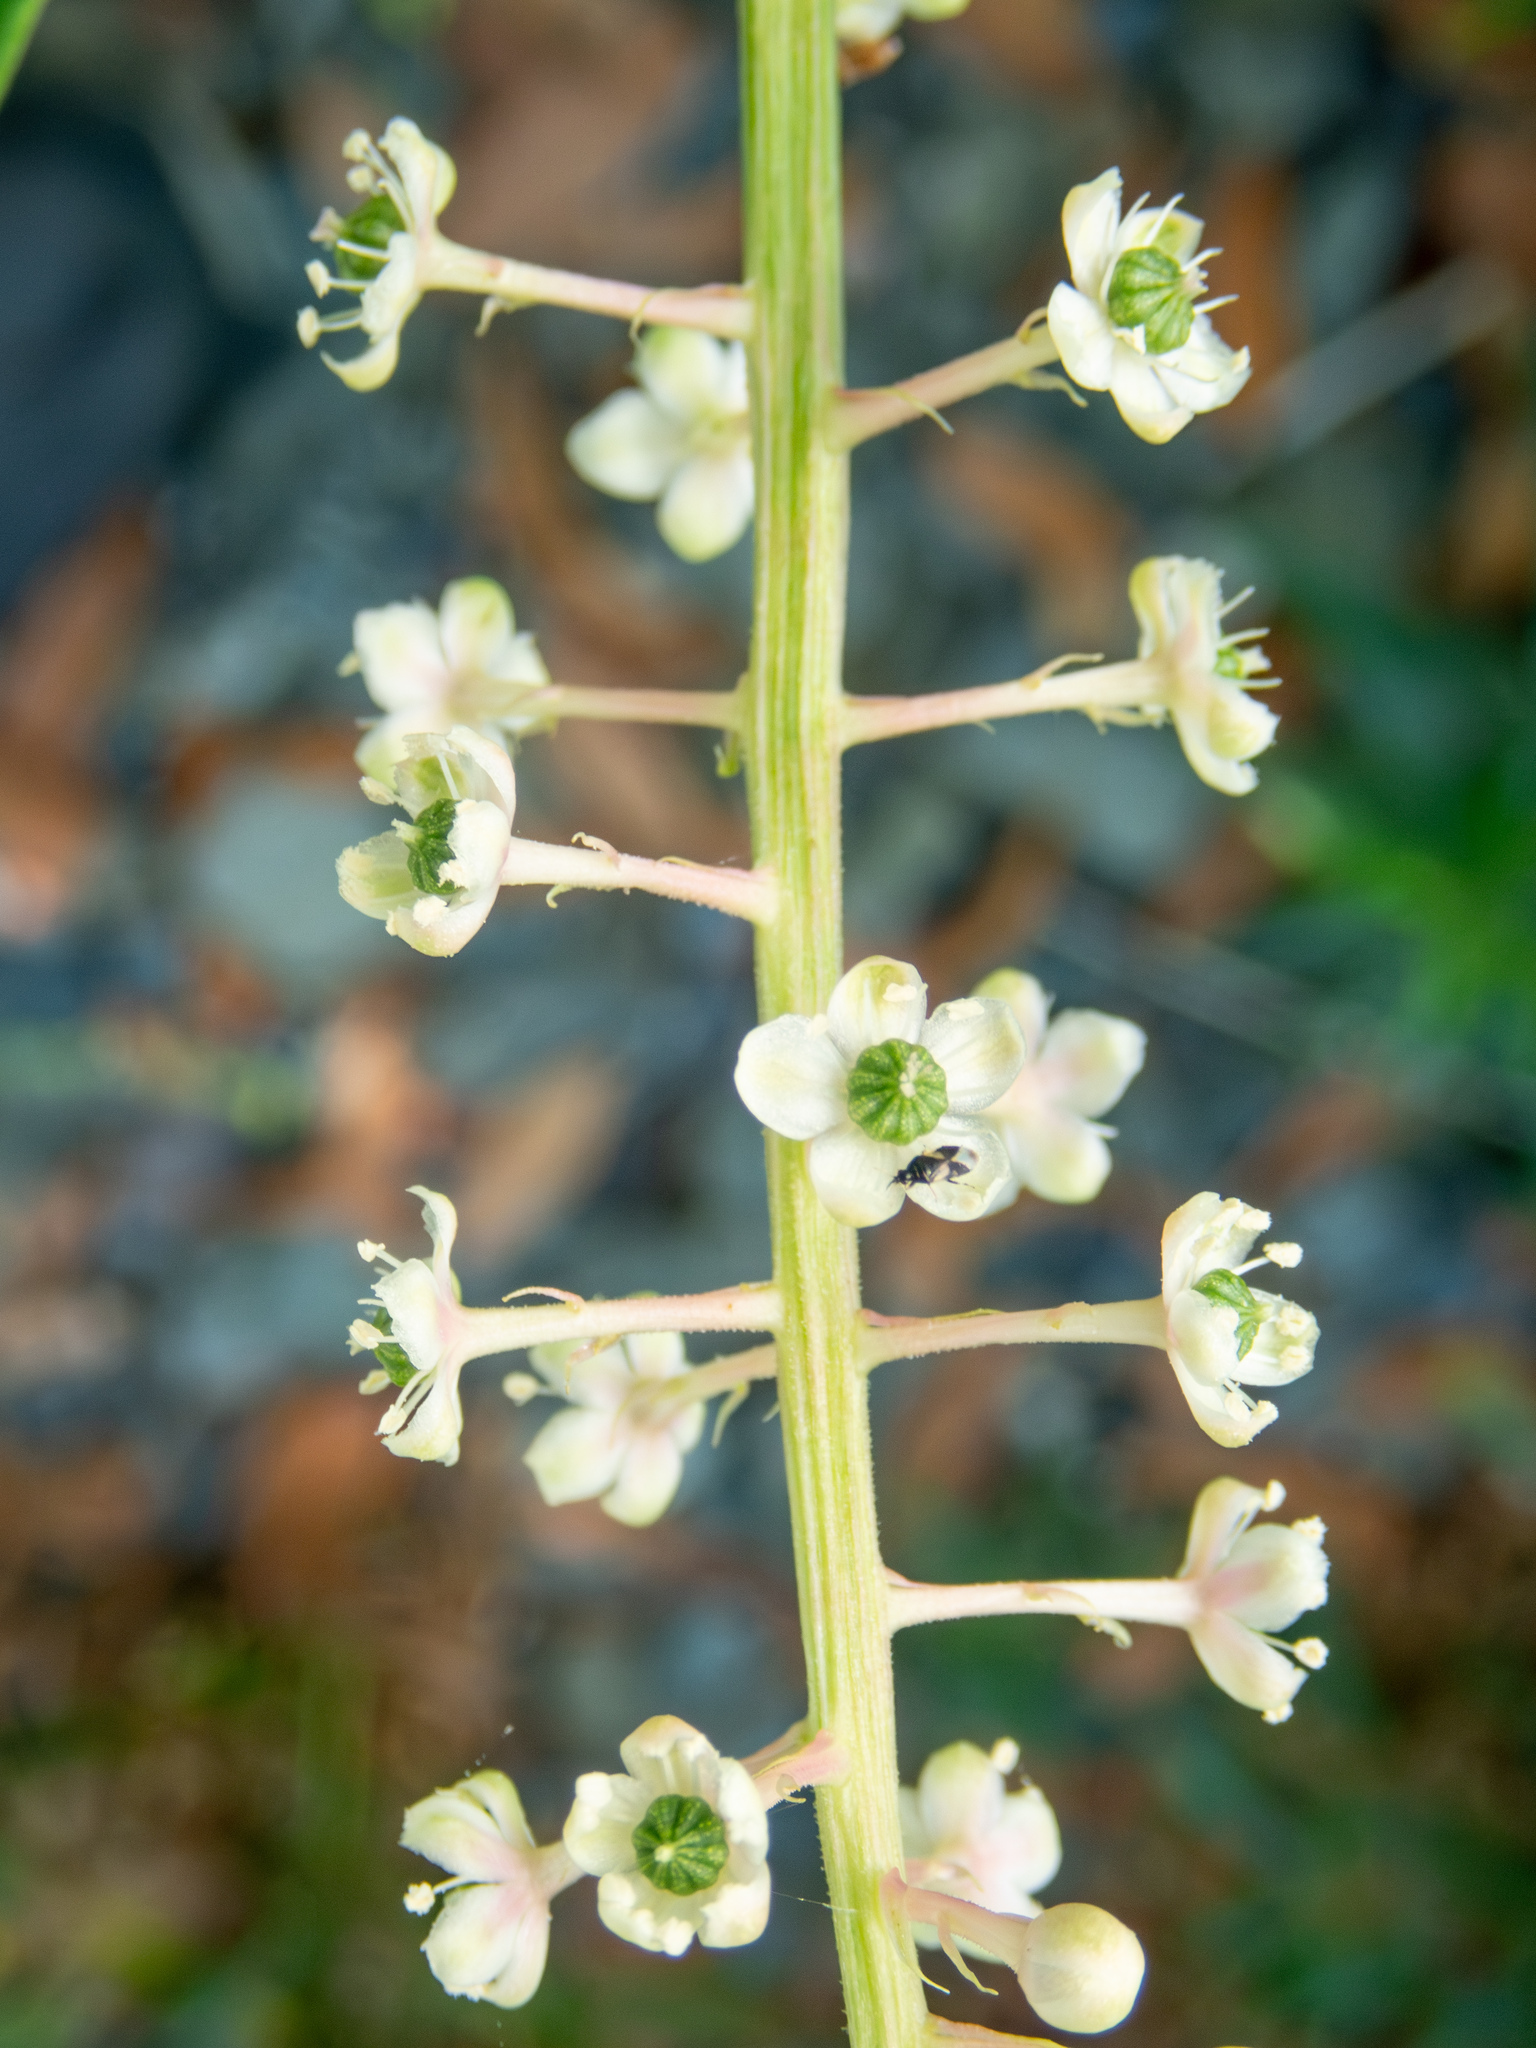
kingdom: Plantae
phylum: Tracheophyta
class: Magnoliopsida
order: Caryophyllales
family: Phytolaccaceae
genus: Phytolacca
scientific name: Phytolacca americana
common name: American pokeweed
